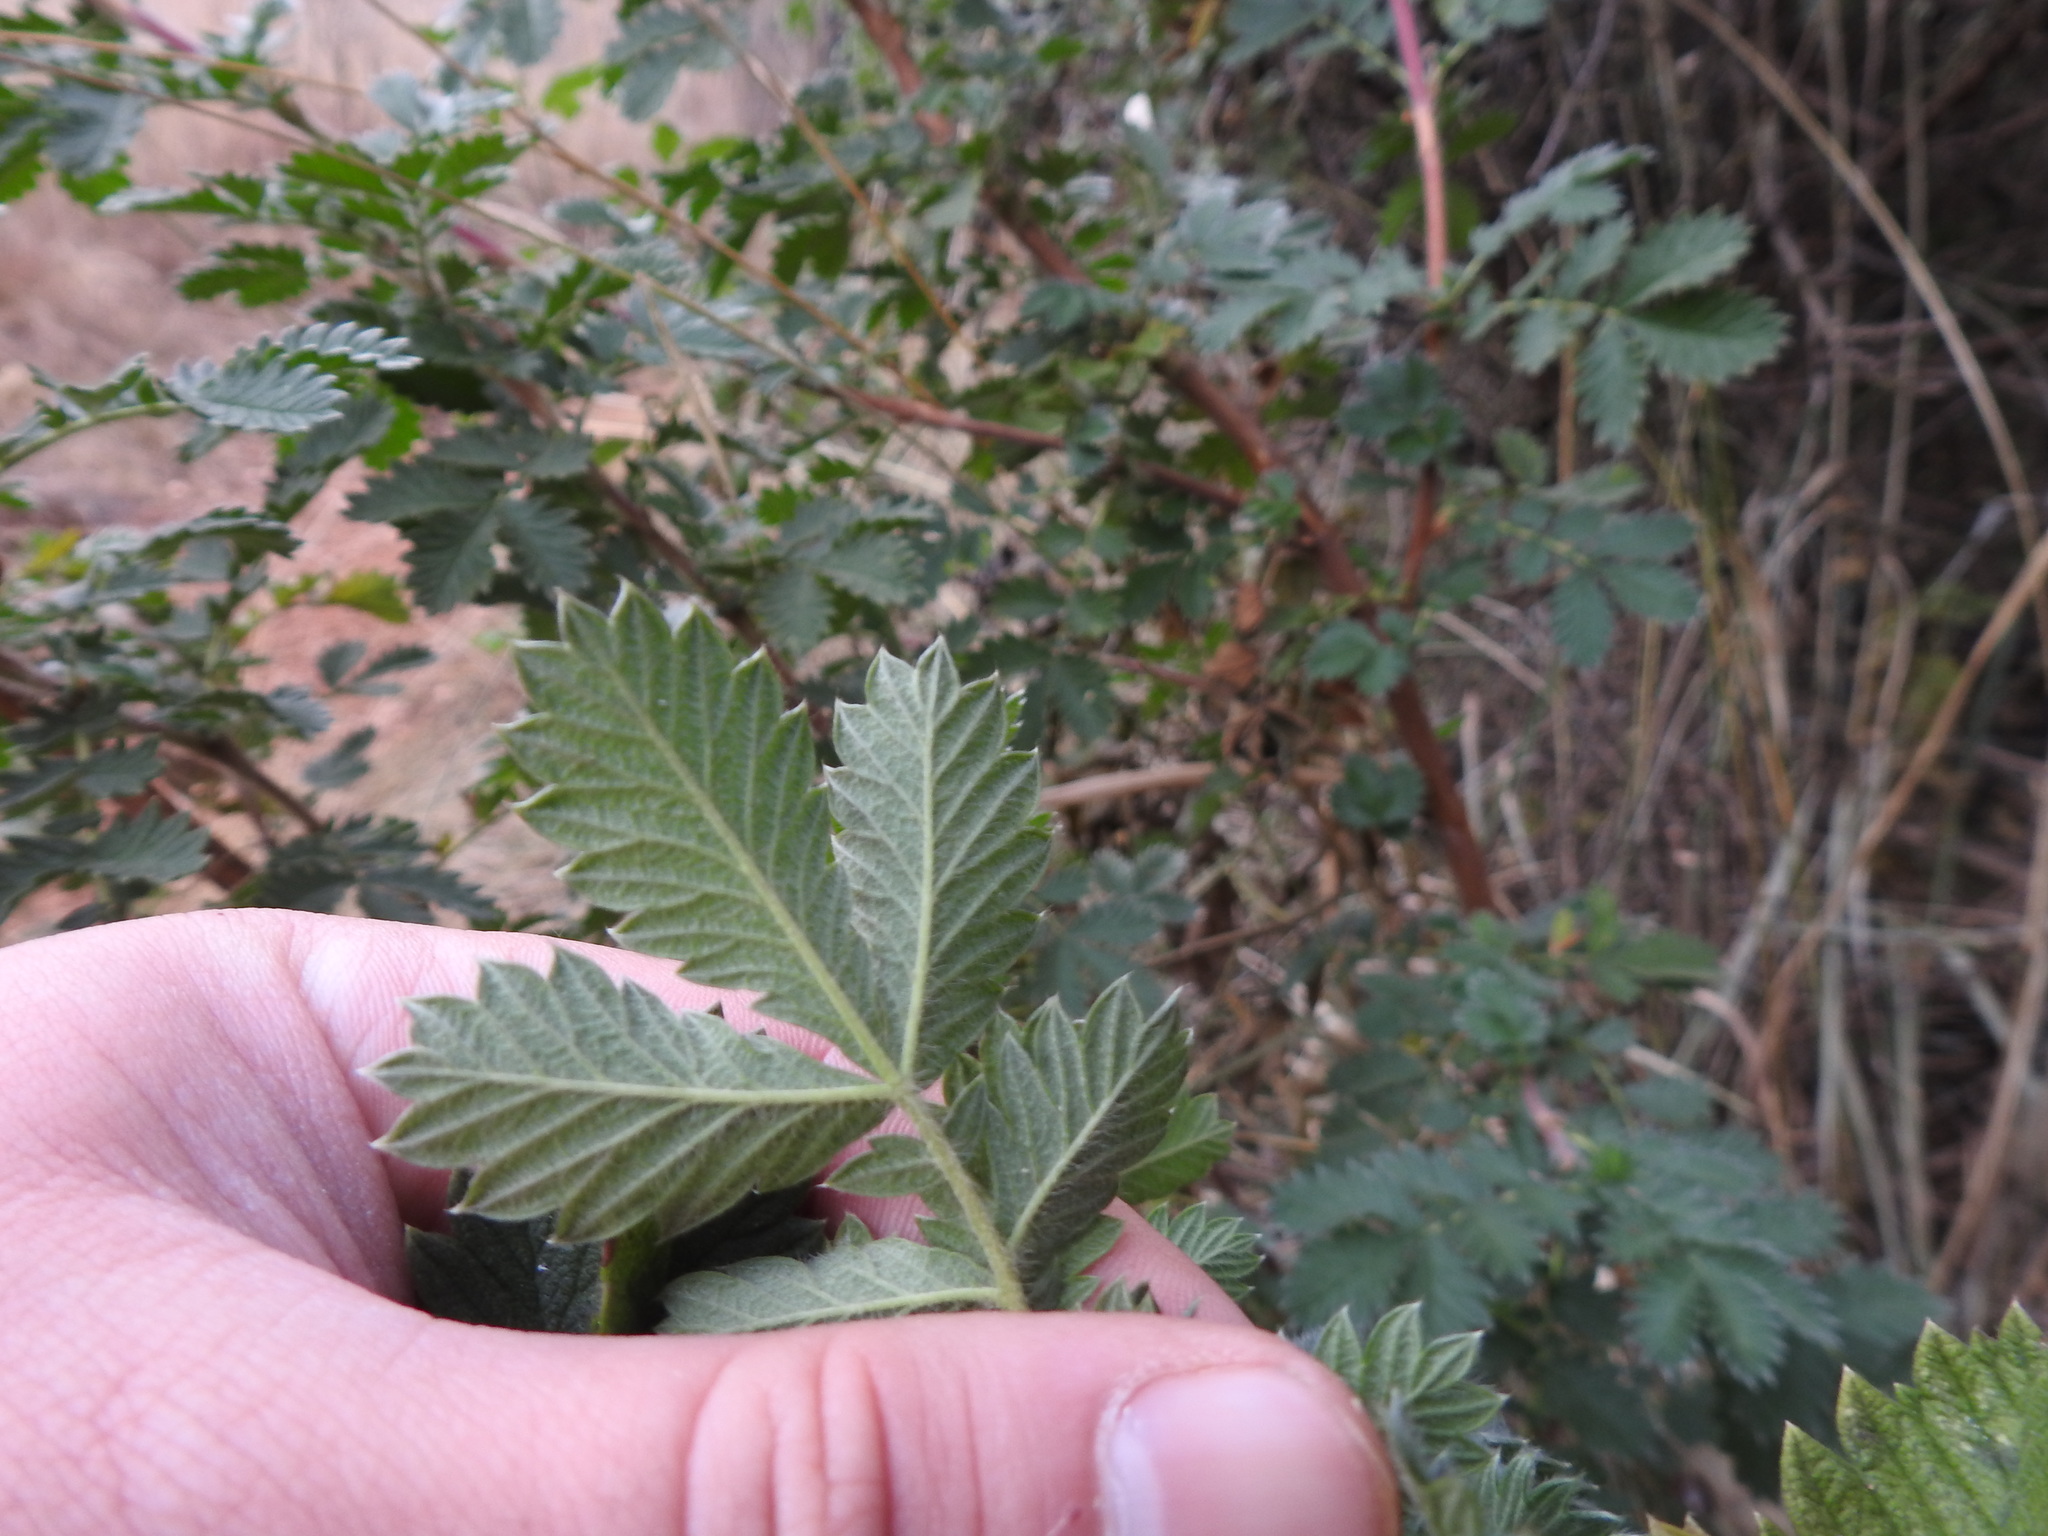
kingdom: Plantae
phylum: Tracheophyta
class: Magnoliopsida
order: Rosales
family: Rosaceae
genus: Leucosidea
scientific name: Leucosidea sericea
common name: Oldwood
